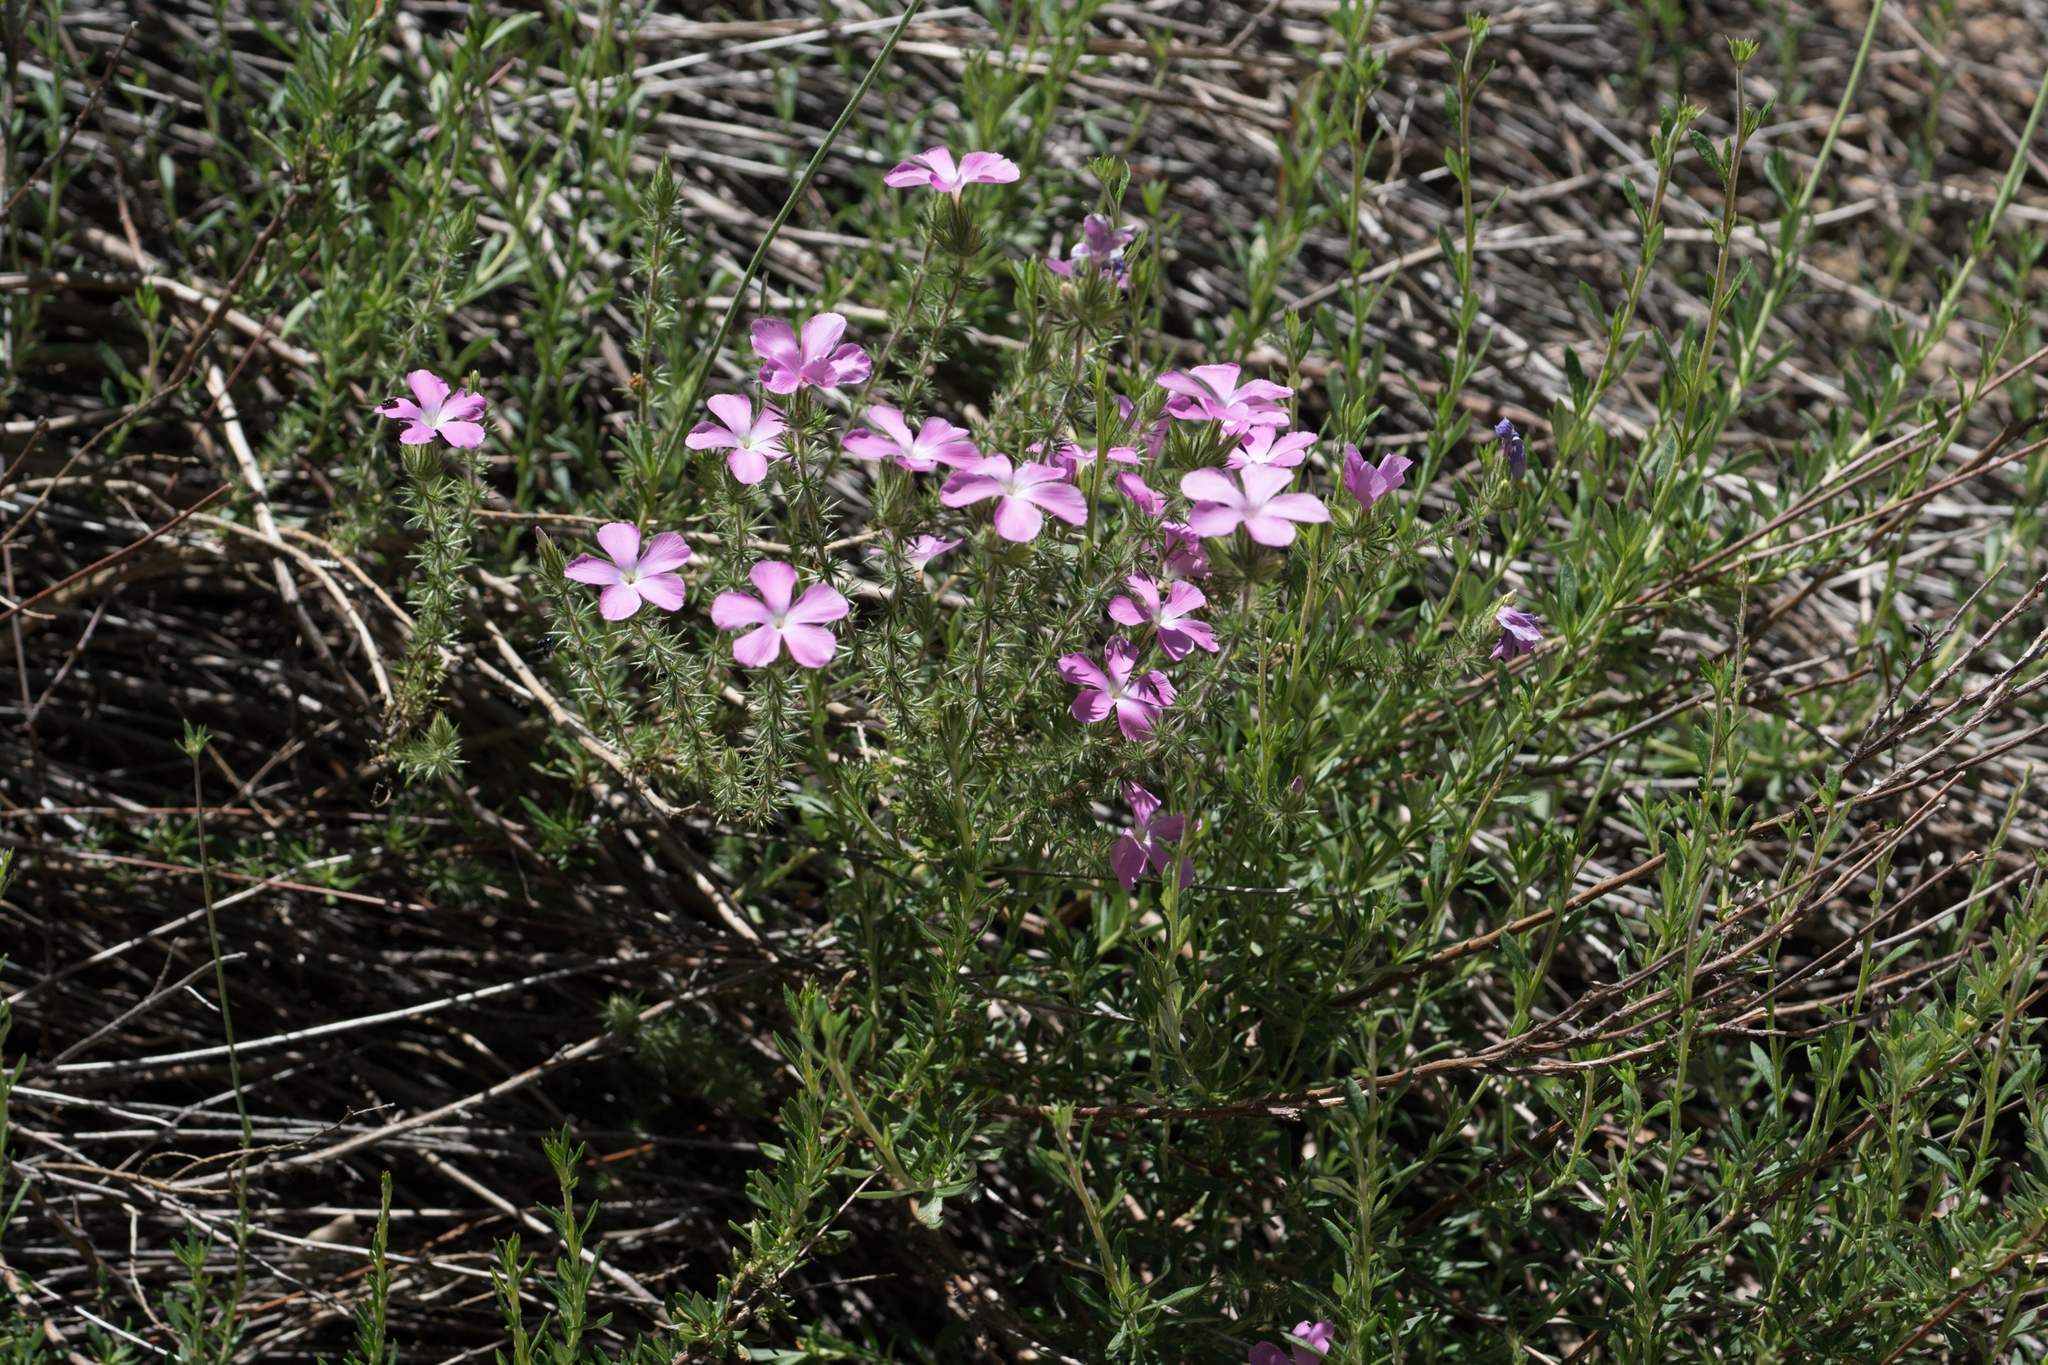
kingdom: Plantae
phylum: Tracheophyta
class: Magnoliopsida
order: Ericales
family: Polemoniaceae
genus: Linanthus
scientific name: Linanthus californicus
